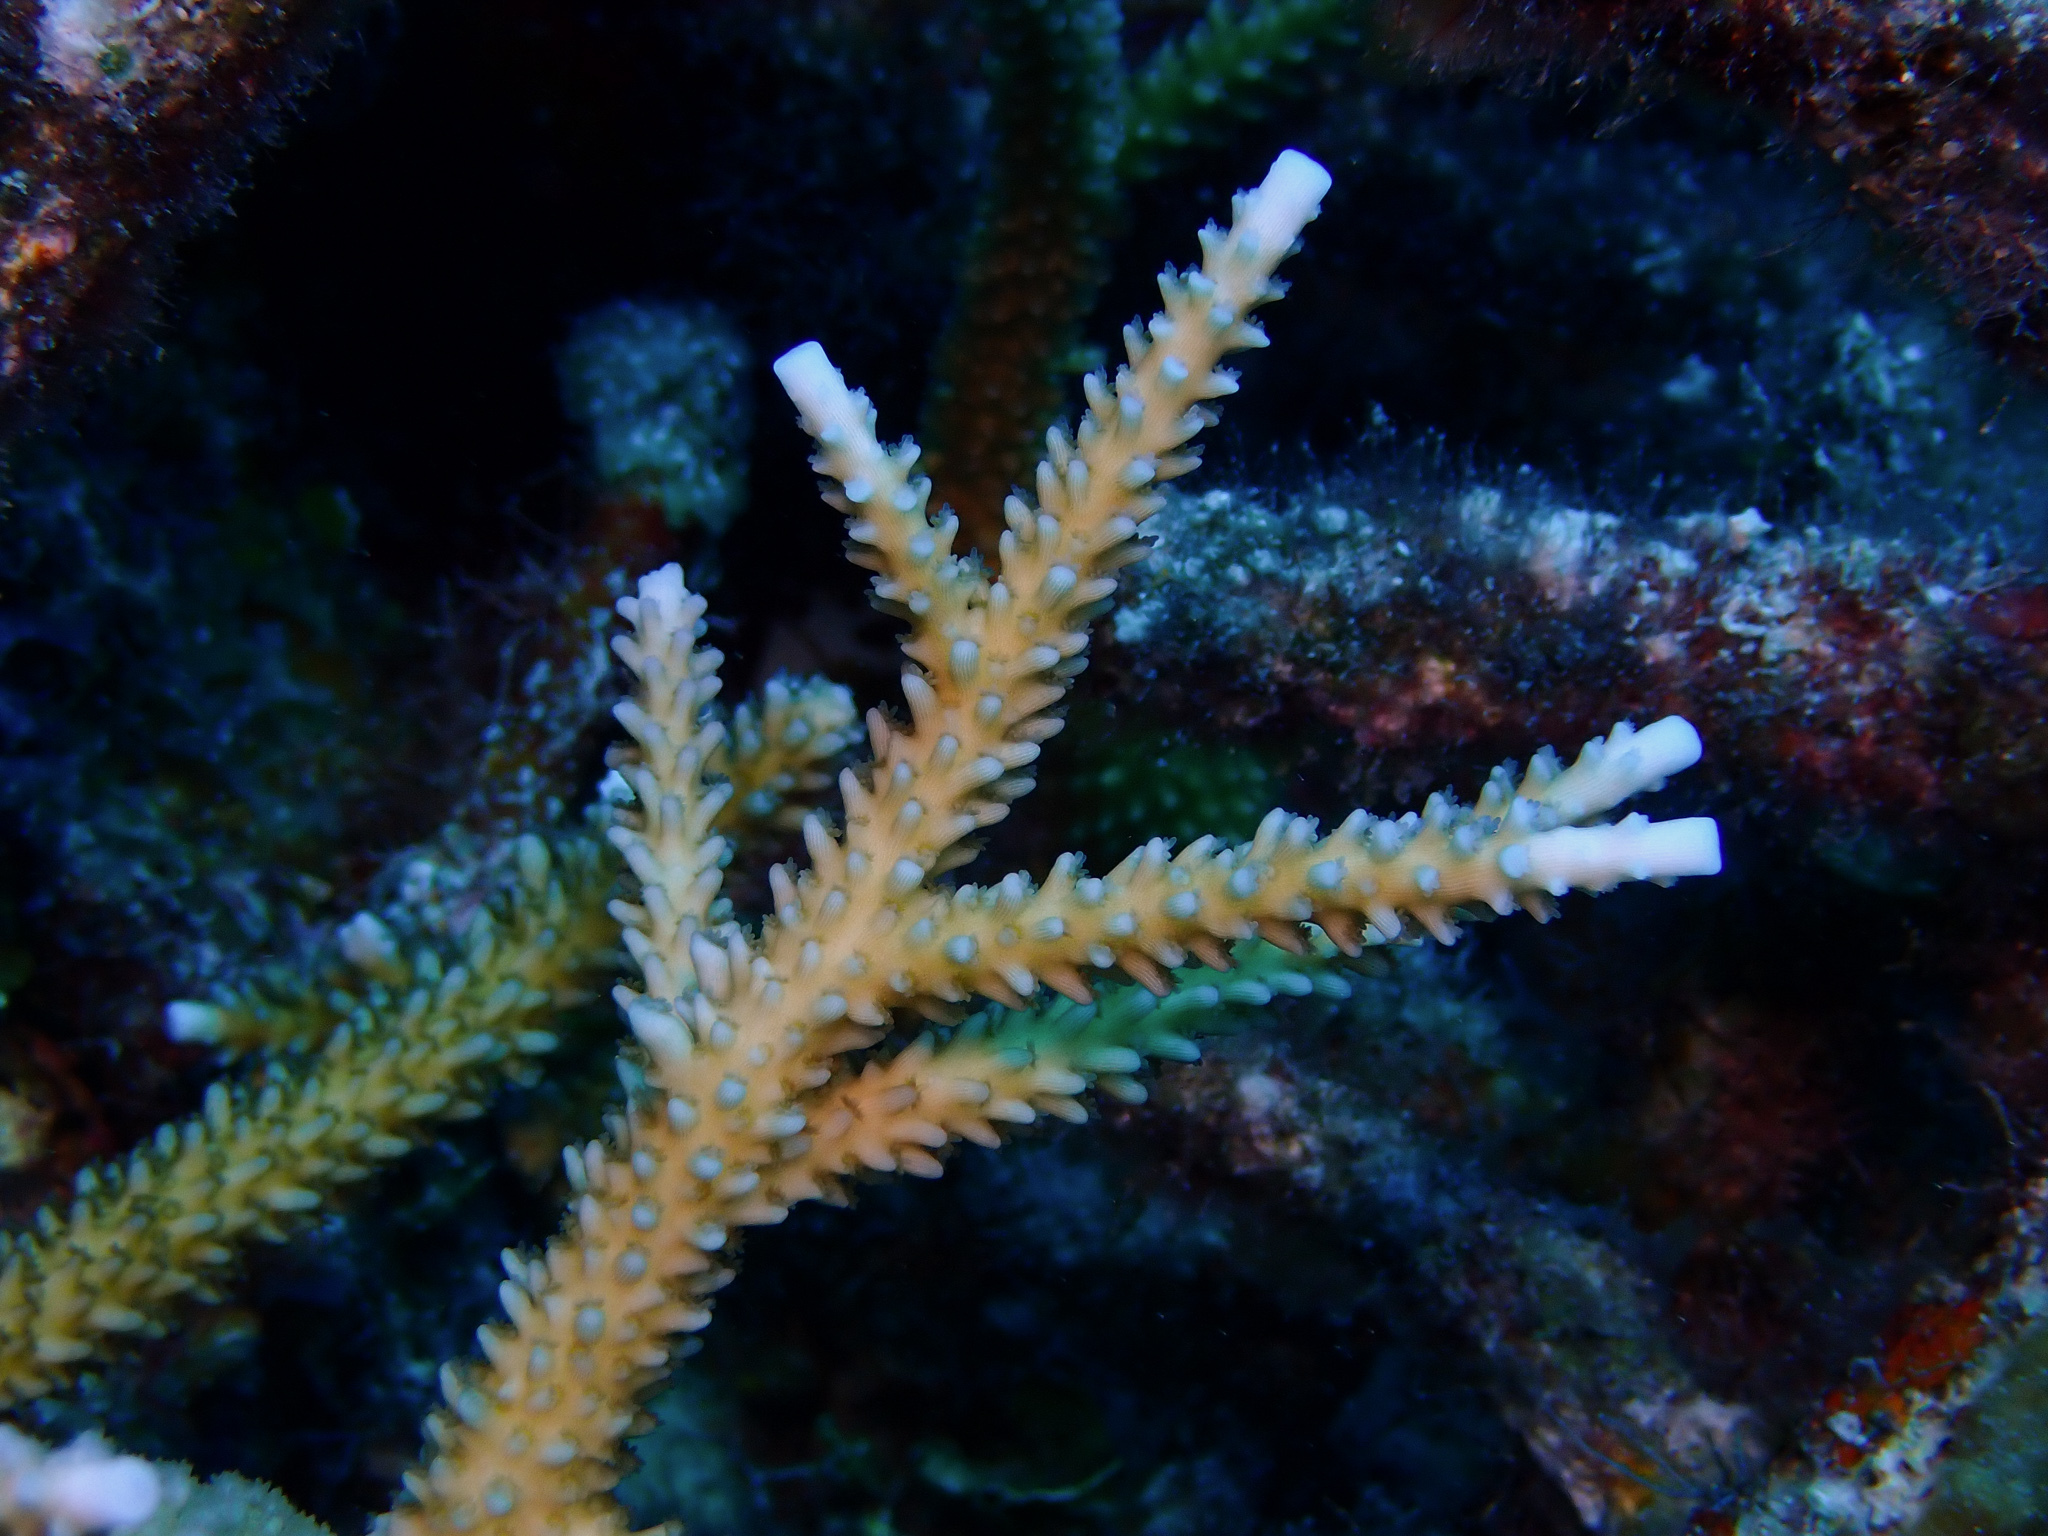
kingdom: Animalia
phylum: Cnidaria
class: Anthozoa
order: Scleractinia
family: Acroporidae
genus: Acropora
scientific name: Acropora cervicornis
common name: Staghorn coral
